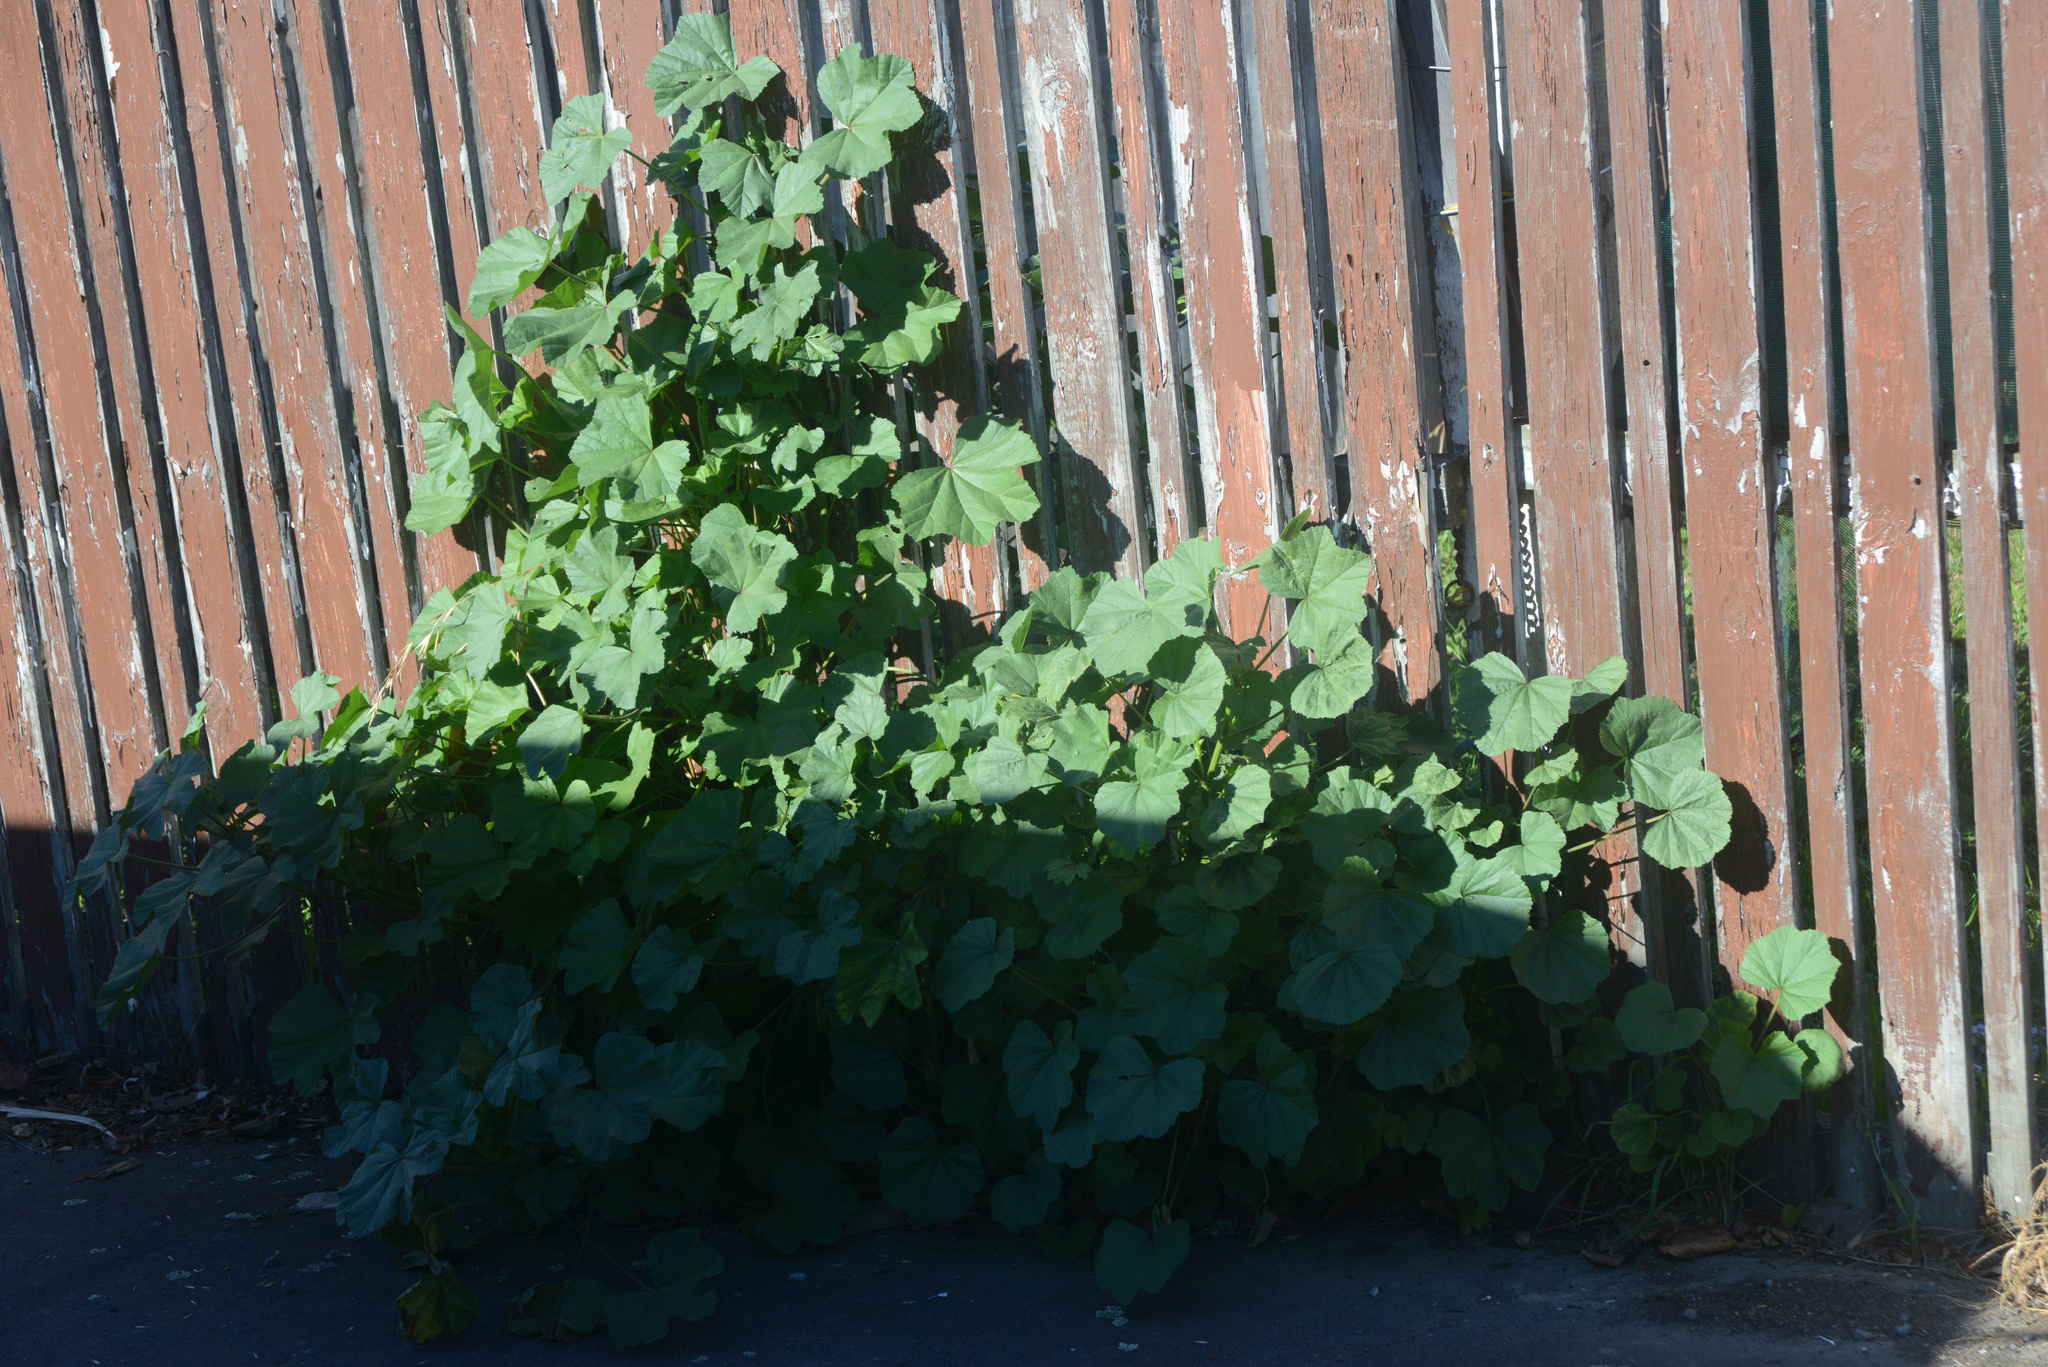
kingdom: Plantae
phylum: Tracheophyta
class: Magnoliopsida
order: Malvales
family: Malvaceae
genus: Malva
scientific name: Malva sylvestris
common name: Common mallow
